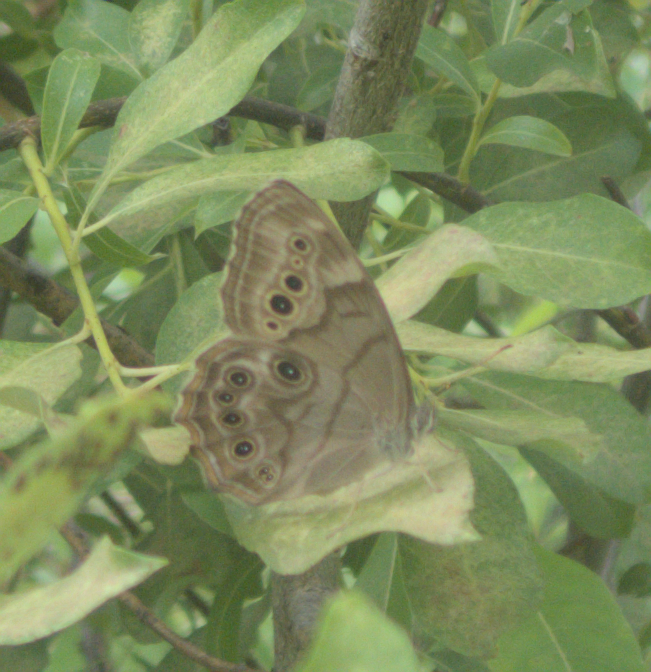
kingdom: Animalia
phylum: Arthropoda
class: Insecta
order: Lepidoptera
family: Nymphalidae
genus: Lethe
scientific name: Lethe anthedon
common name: Northern pearly-eye
